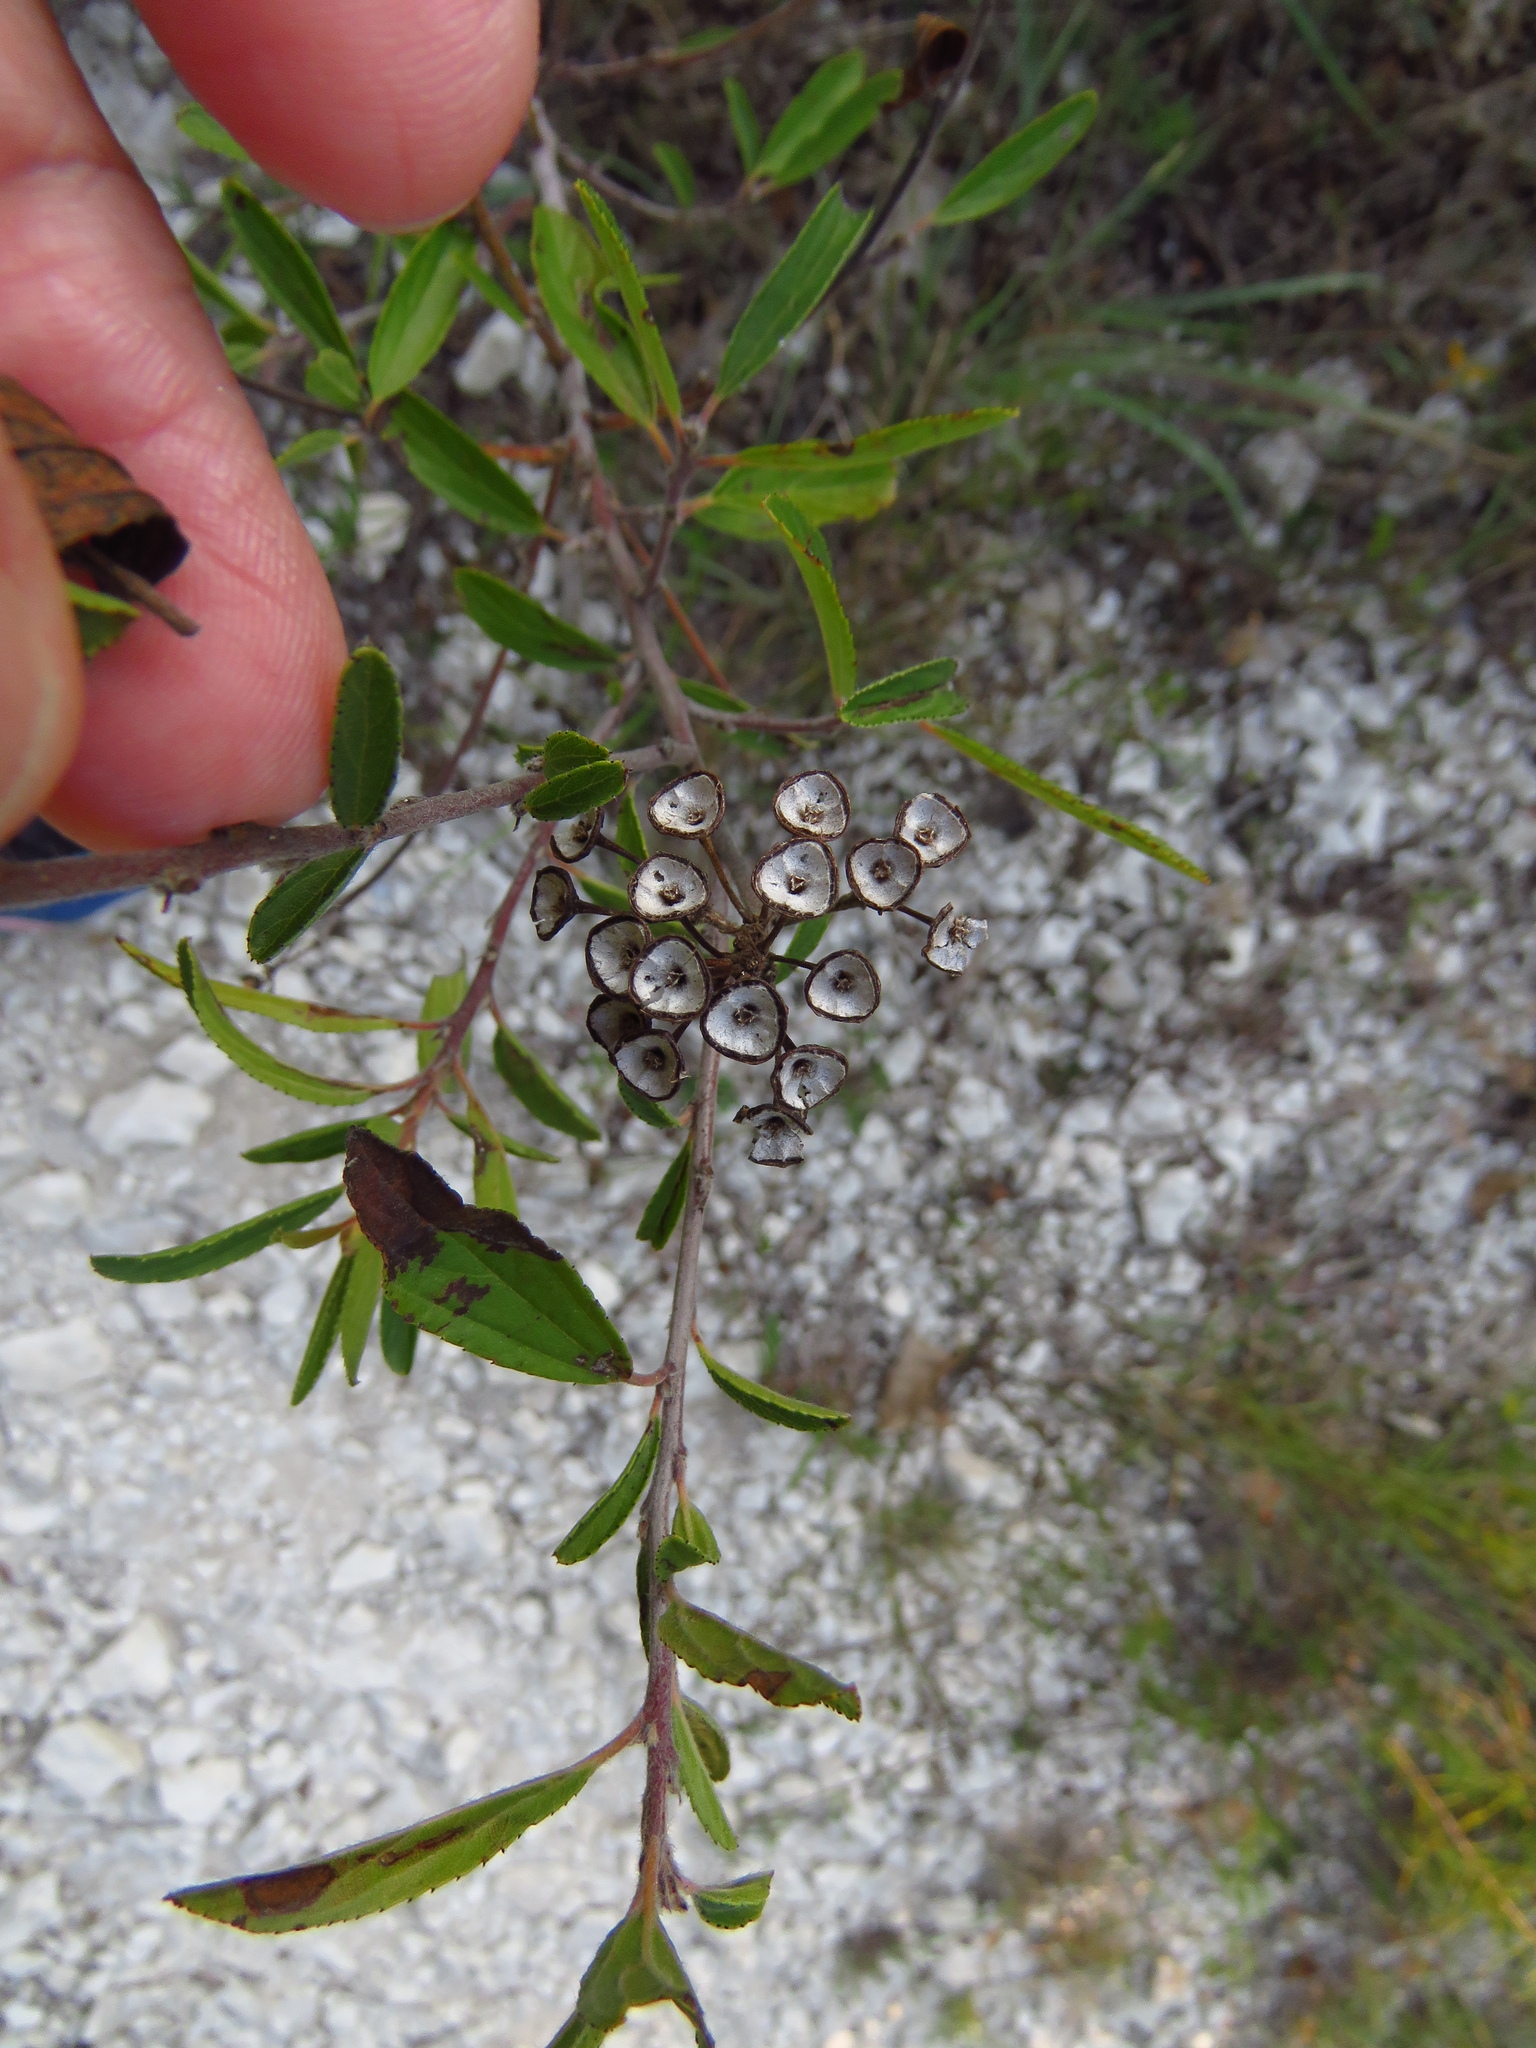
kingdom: Plantae
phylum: Tracheophyta
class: Magnoliopsida
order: Rosales
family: Rhamnaceae
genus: Ceanothus
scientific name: Ceanothus herbaceus
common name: Inland ceanothus
